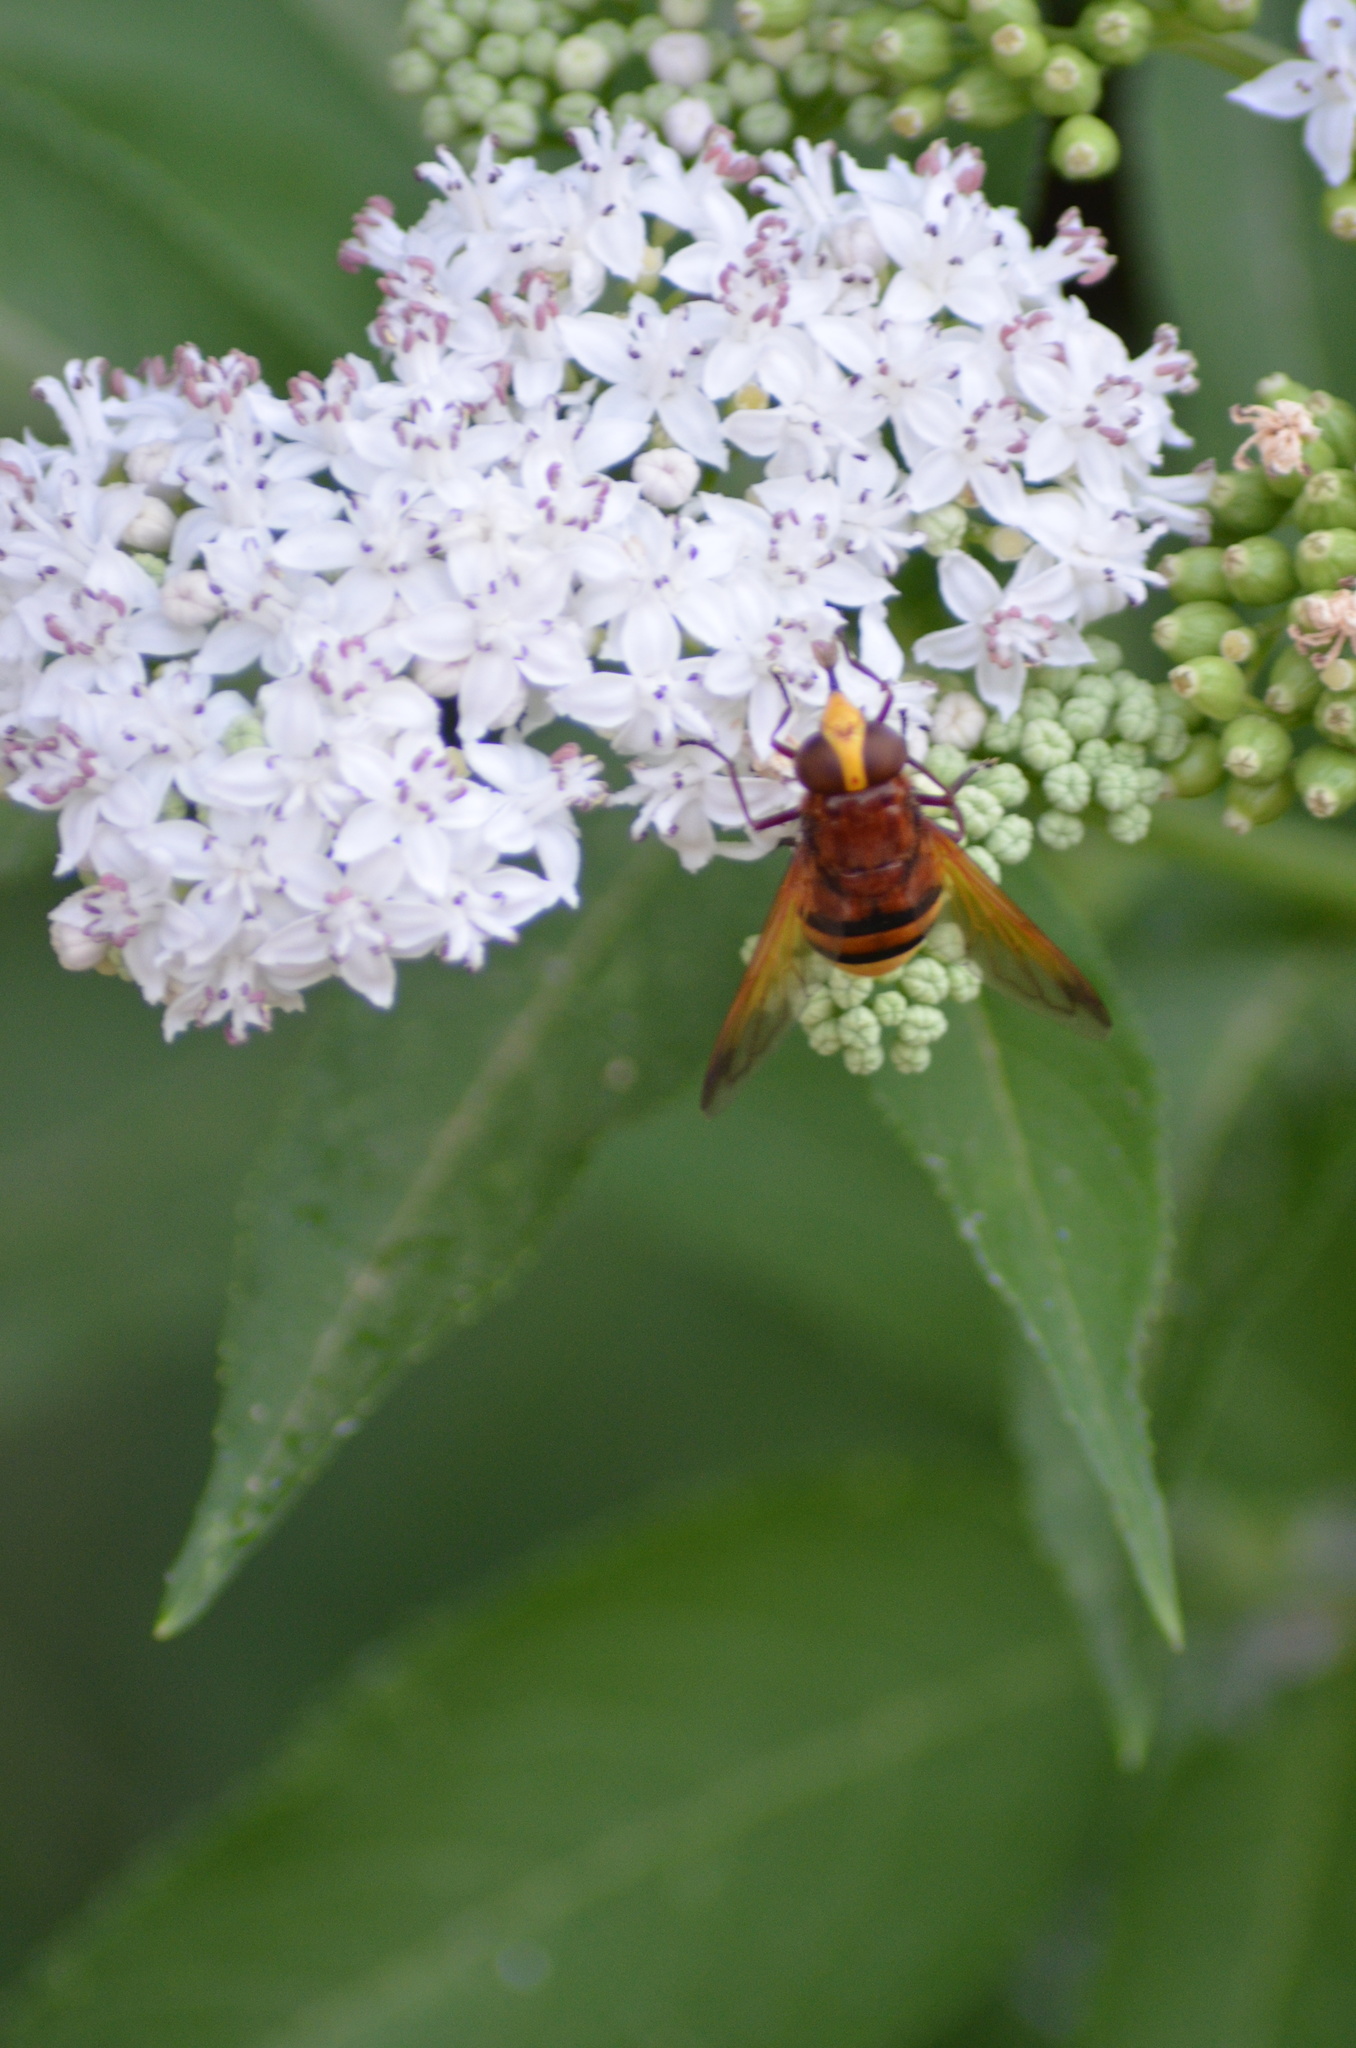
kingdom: Animalia
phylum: Arthropoda
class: Insecta
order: Diptera
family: Syrphidae
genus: Volucella
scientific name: Volucella zonaria
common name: Hornet hoverfly
